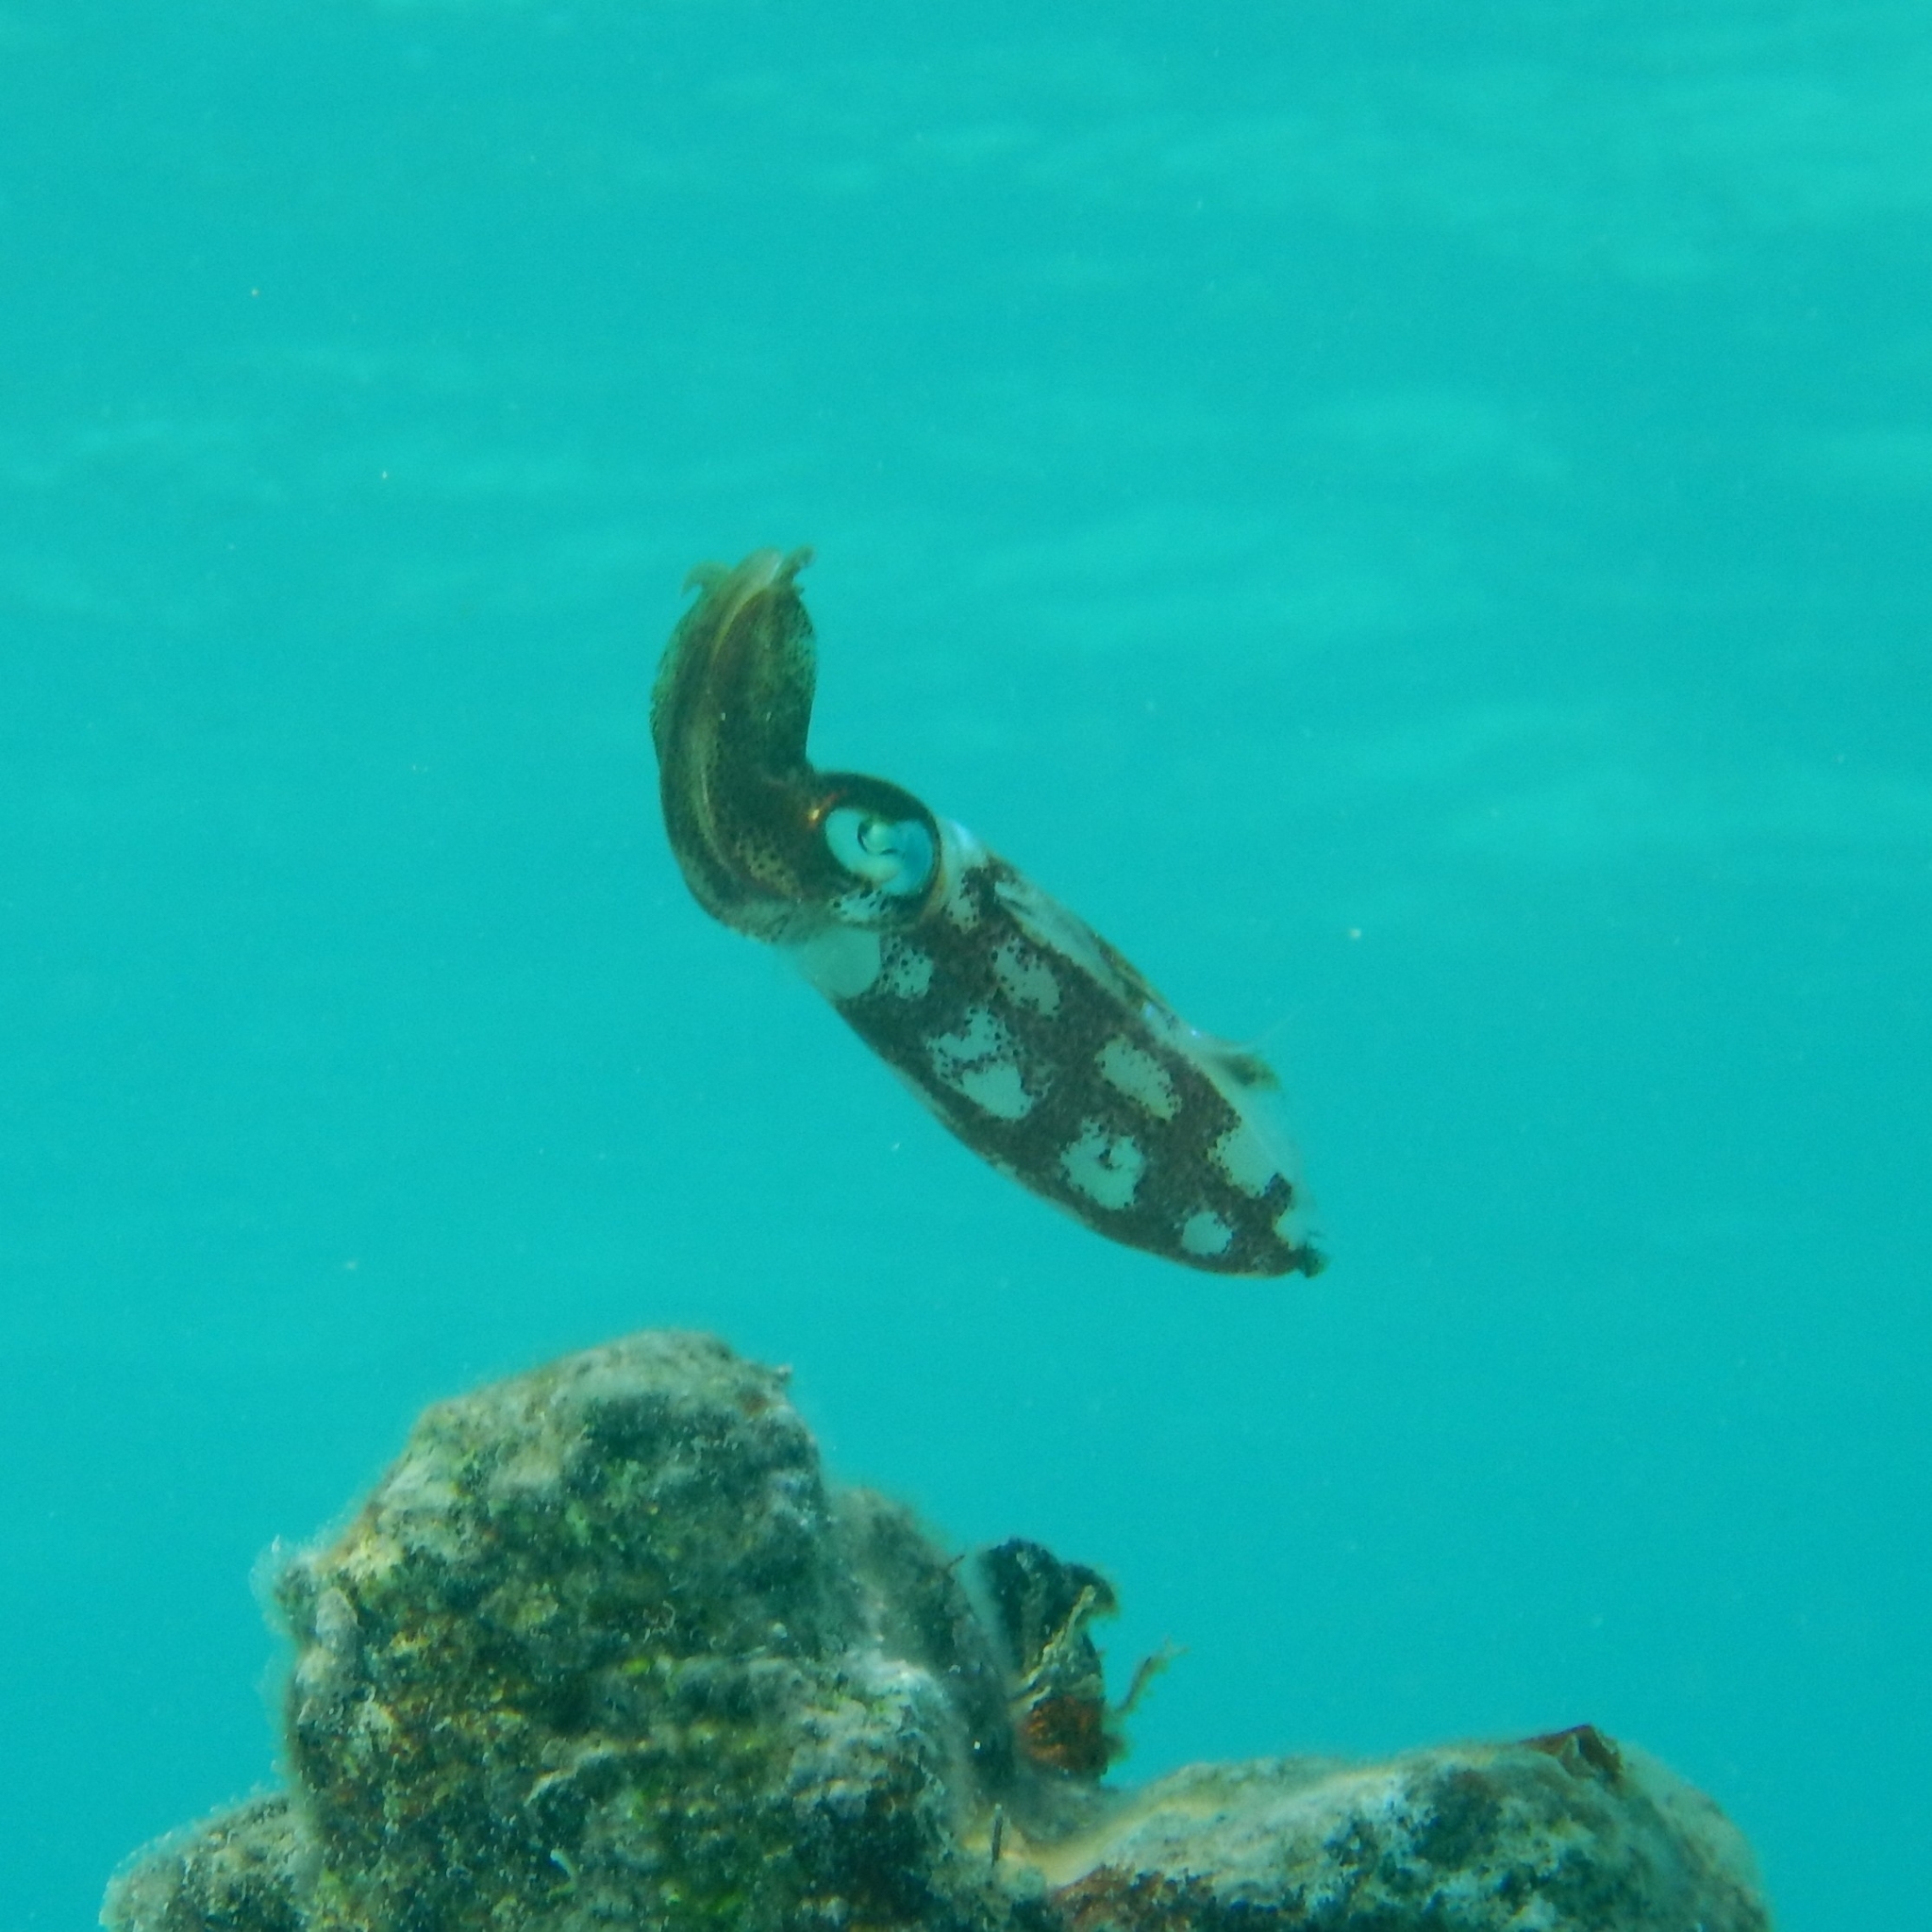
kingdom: Animalia
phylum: Mollusca
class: Cephalopoda
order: Myopsida
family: Loliginidae
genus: Sepioteuthis
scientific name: Sepioteuthis sepioidea
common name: Caribbean reef squid
